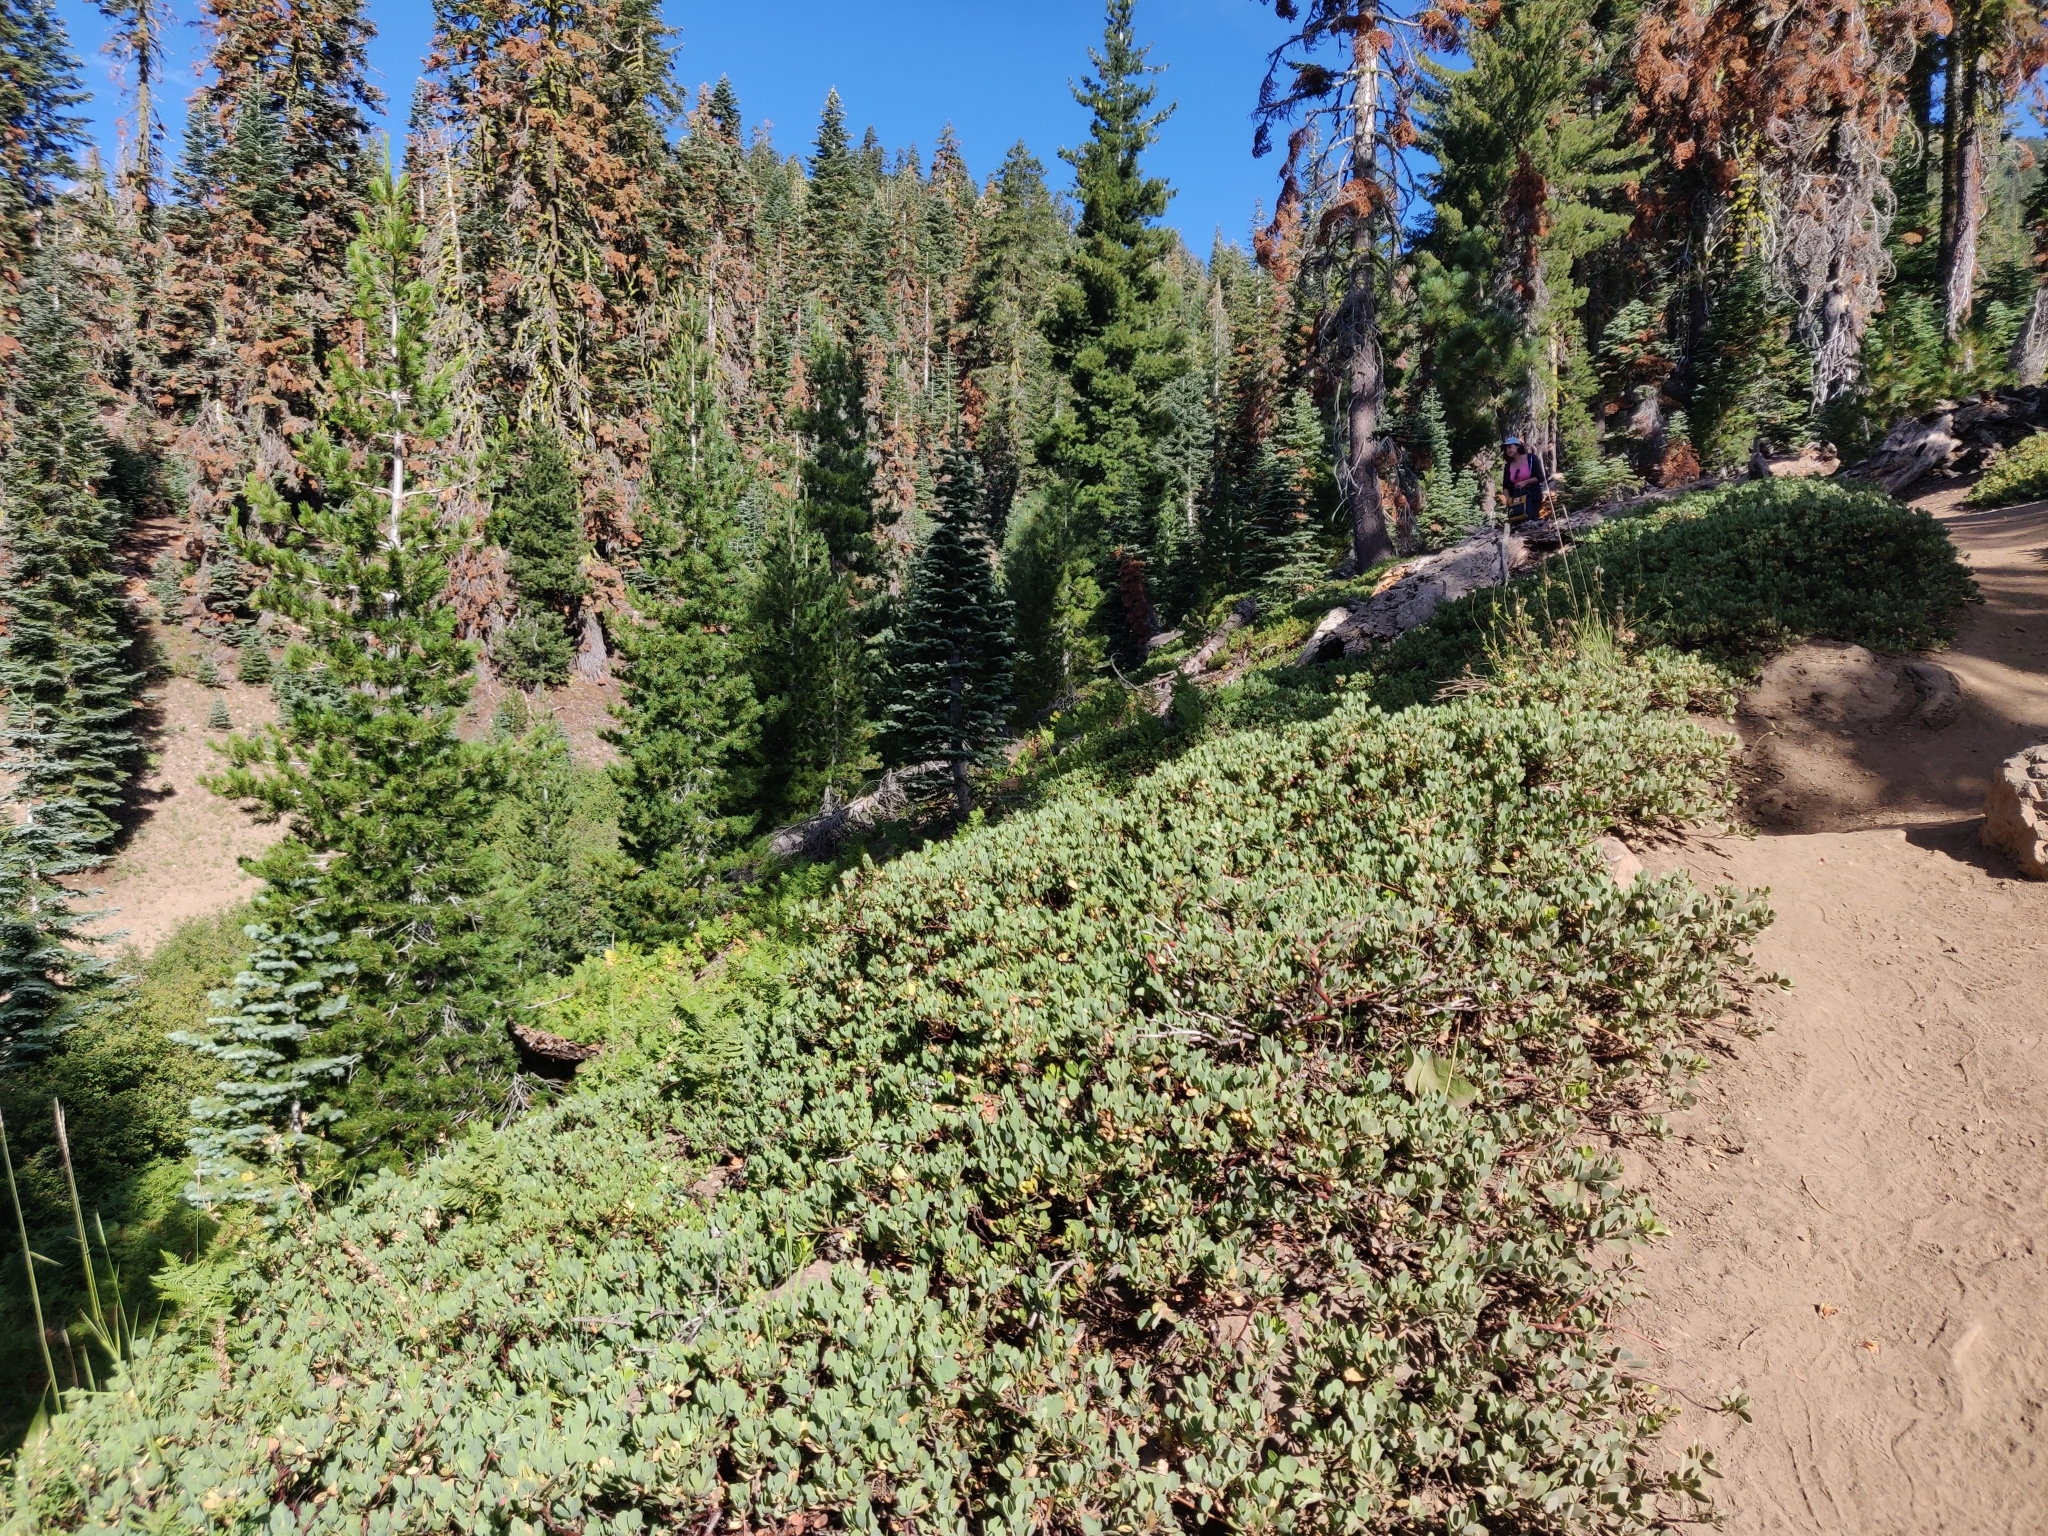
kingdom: Plantae
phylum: Tracheophyta
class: Magnoliopsida
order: Ericales
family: Ericaceae
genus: Arctostaphylos
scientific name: Arctostaphylos nevadensis
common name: Pinemat manzanita
